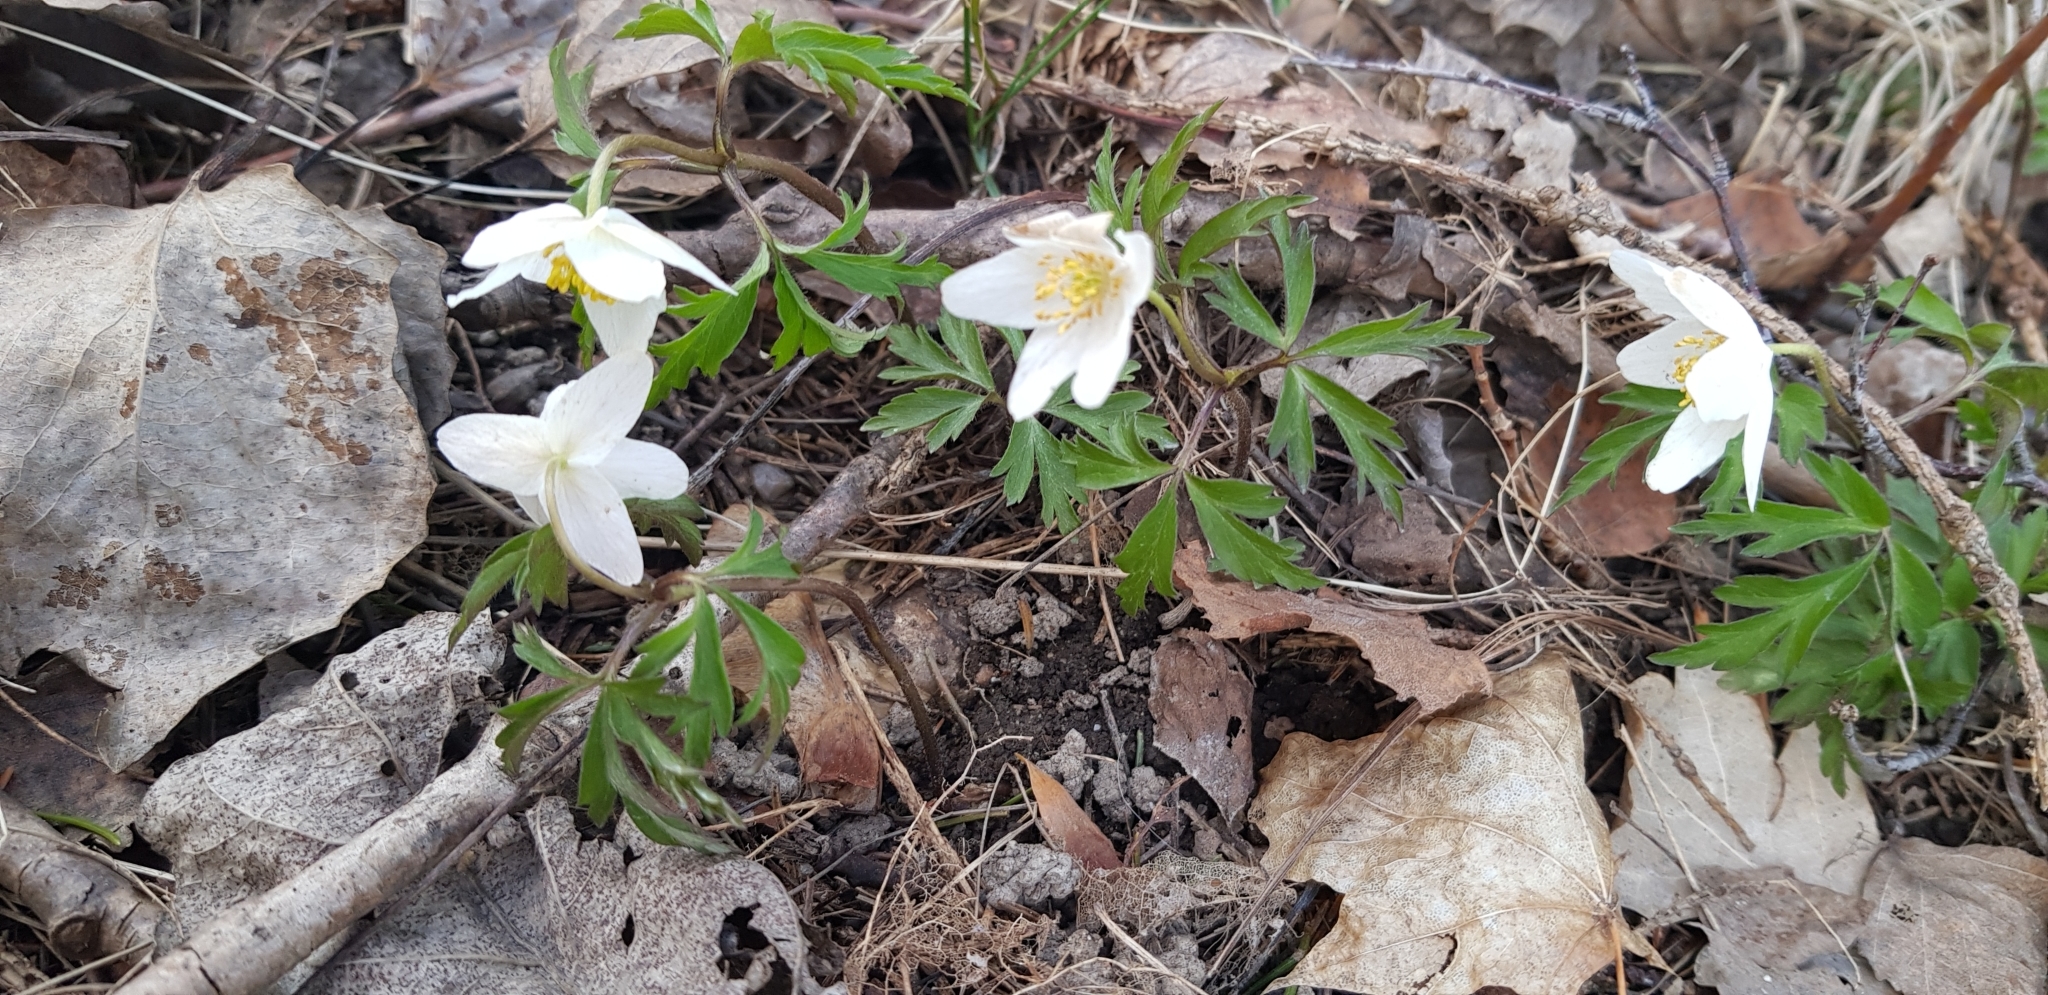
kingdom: Plantae
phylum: Tracheophyta
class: Magnoliopsida
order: Ranunculales
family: Ranunculaceae
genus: Anemone
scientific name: Anemone nemorosa
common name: Wood anemone
